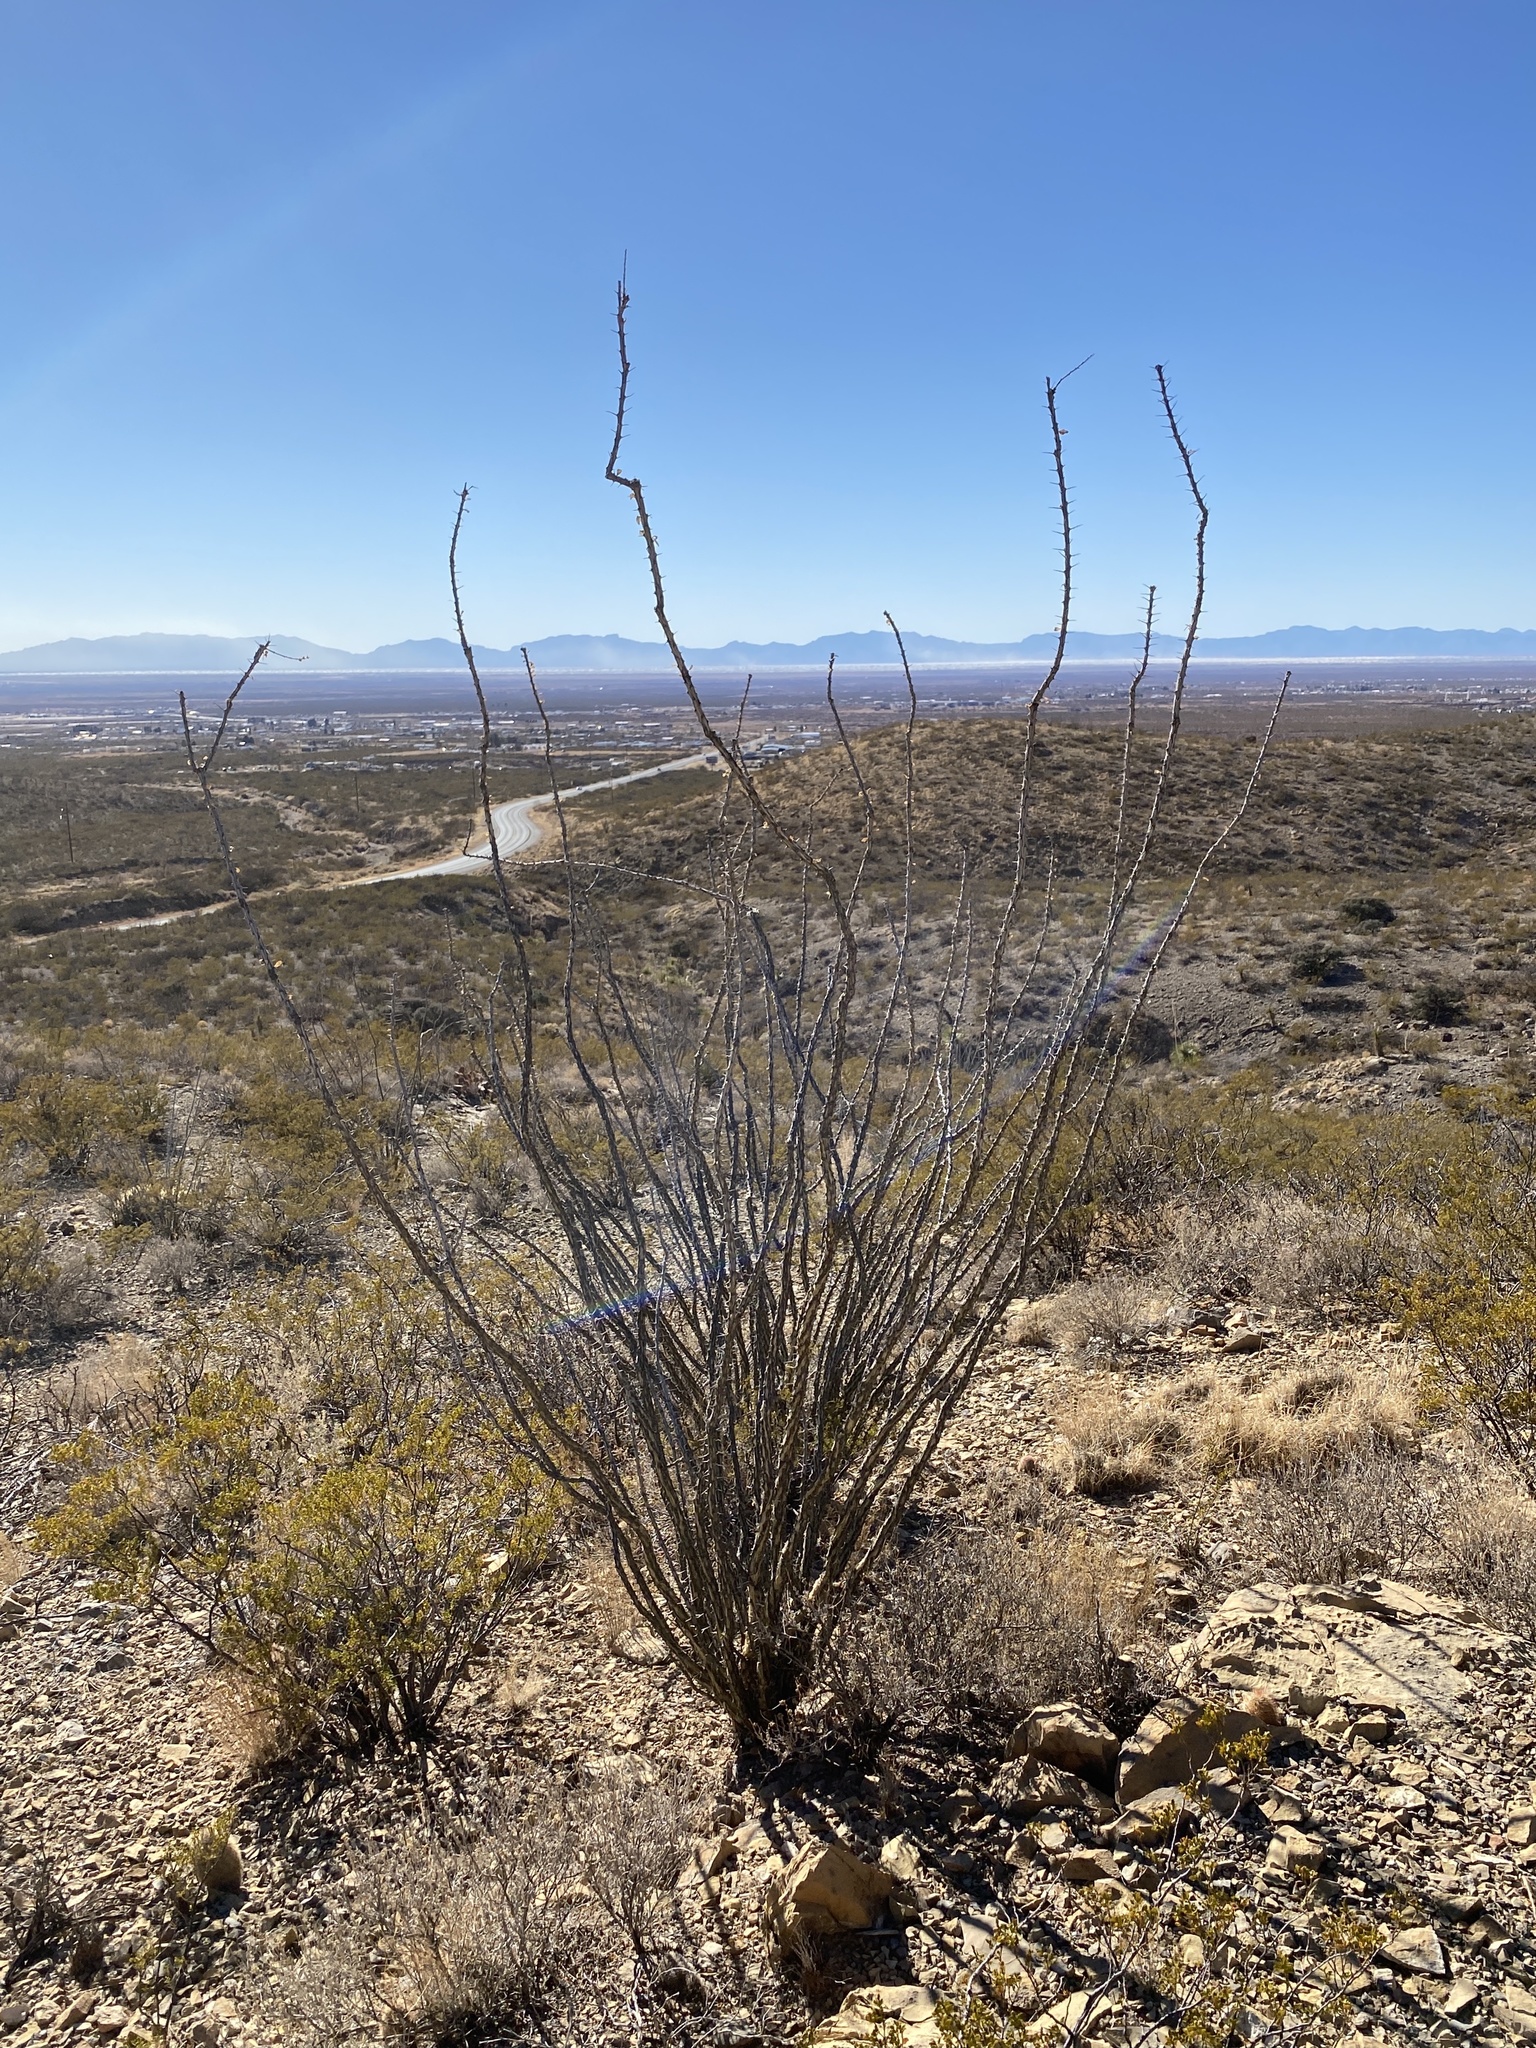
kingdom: Plantae
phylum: Tracheophyta
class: Magnoliopsida
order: Ericales
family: Fouquieriaceae
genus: Fouquieria
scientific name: Fouquieria splendens
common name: Vine-cactus
